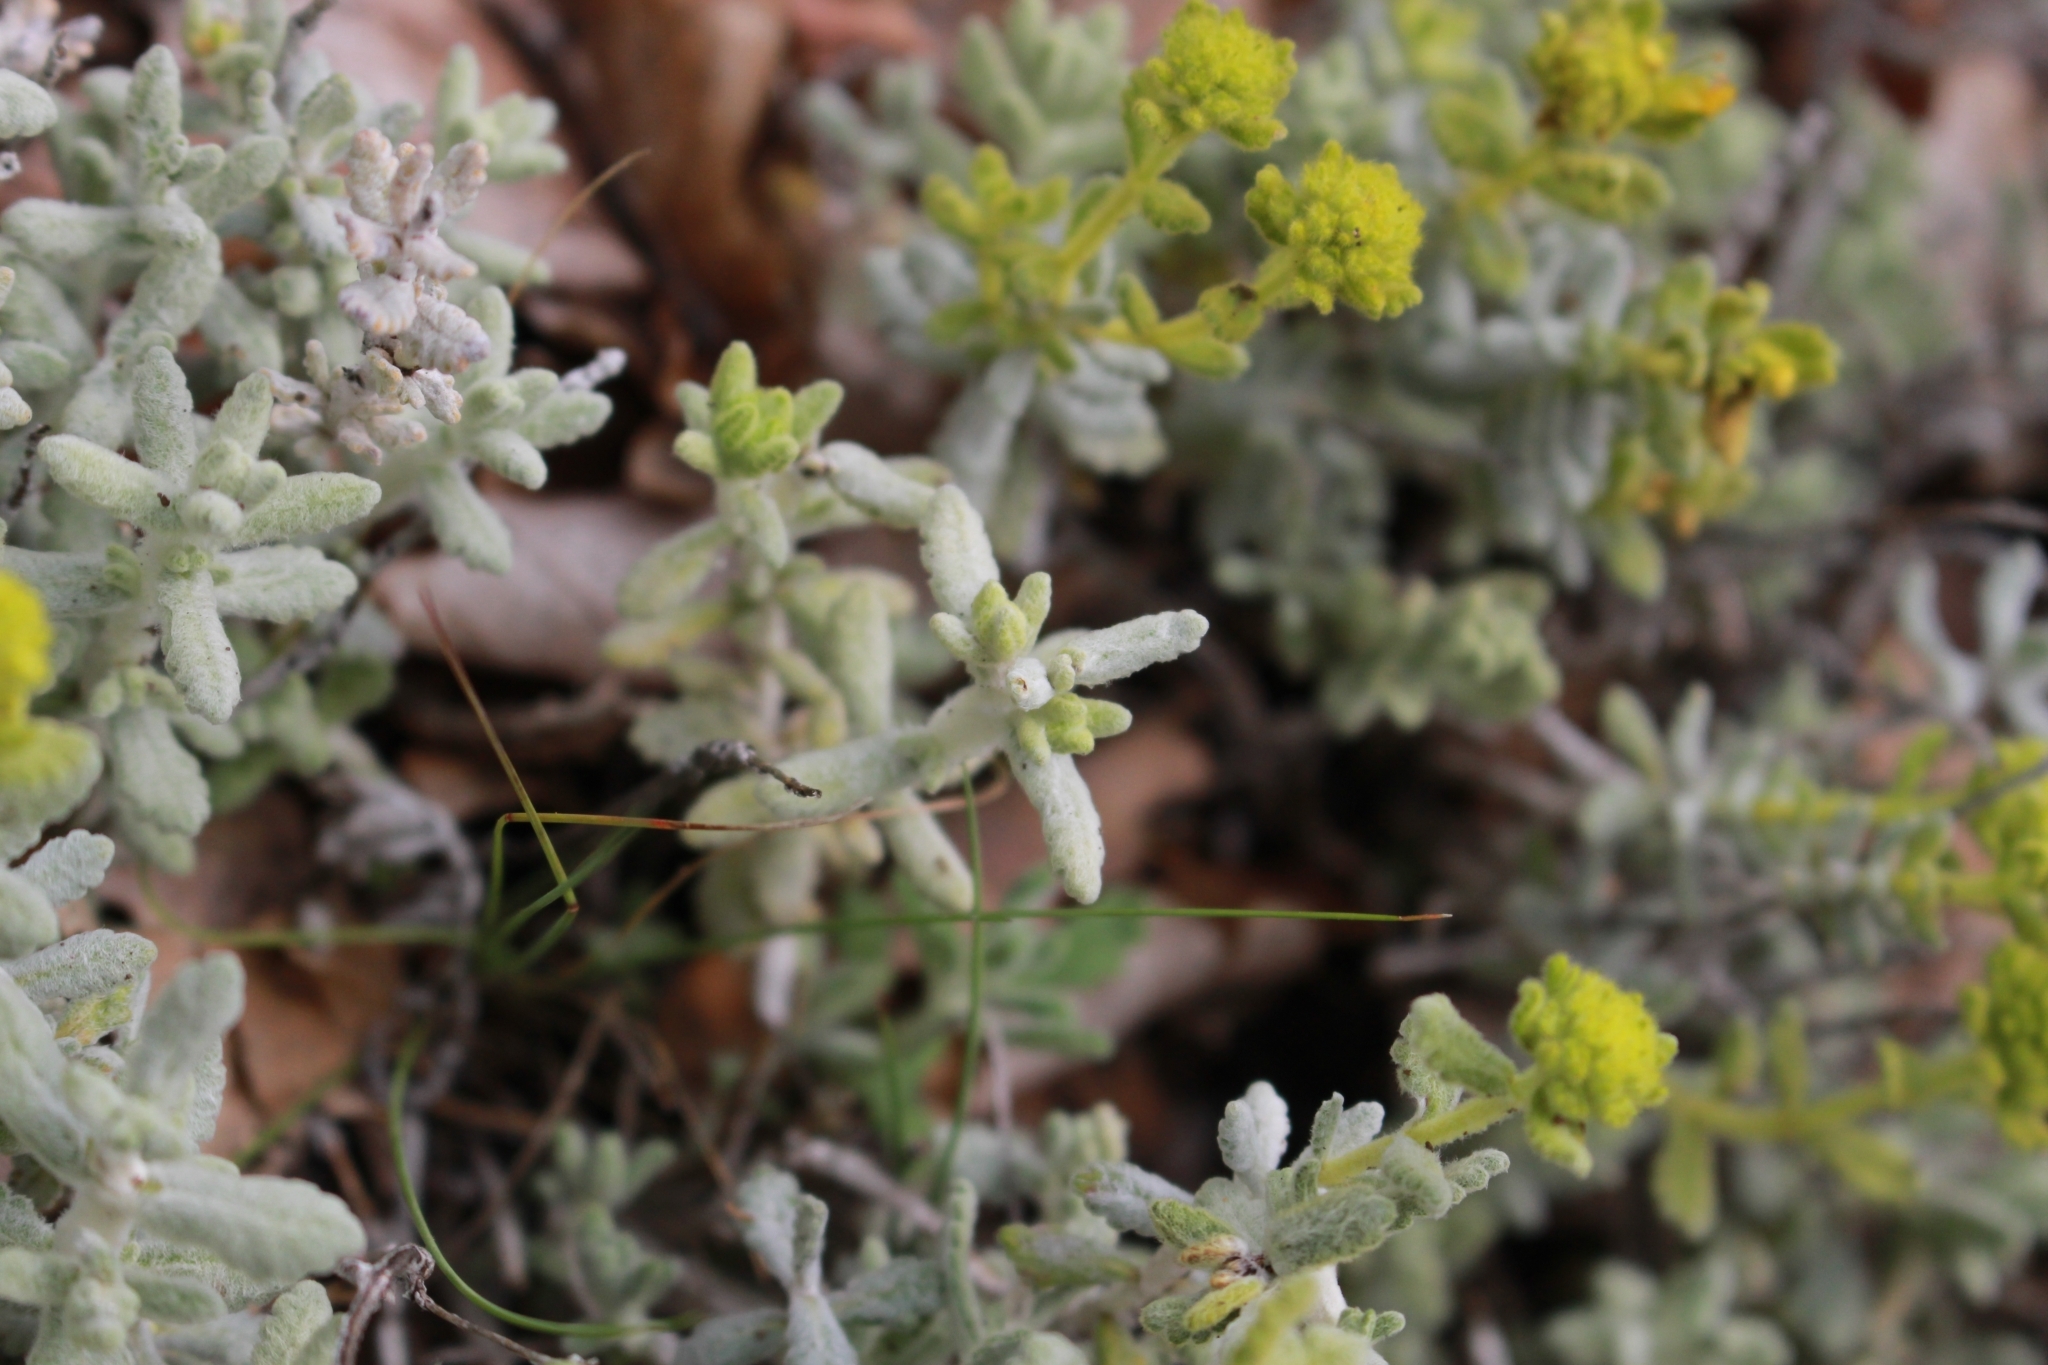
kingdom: Plantae
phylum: Tracheophyta
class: Magnoliopsida
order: Lamiales
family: Lamiaceae
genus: Teucrium
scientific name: Teucrium aureum
